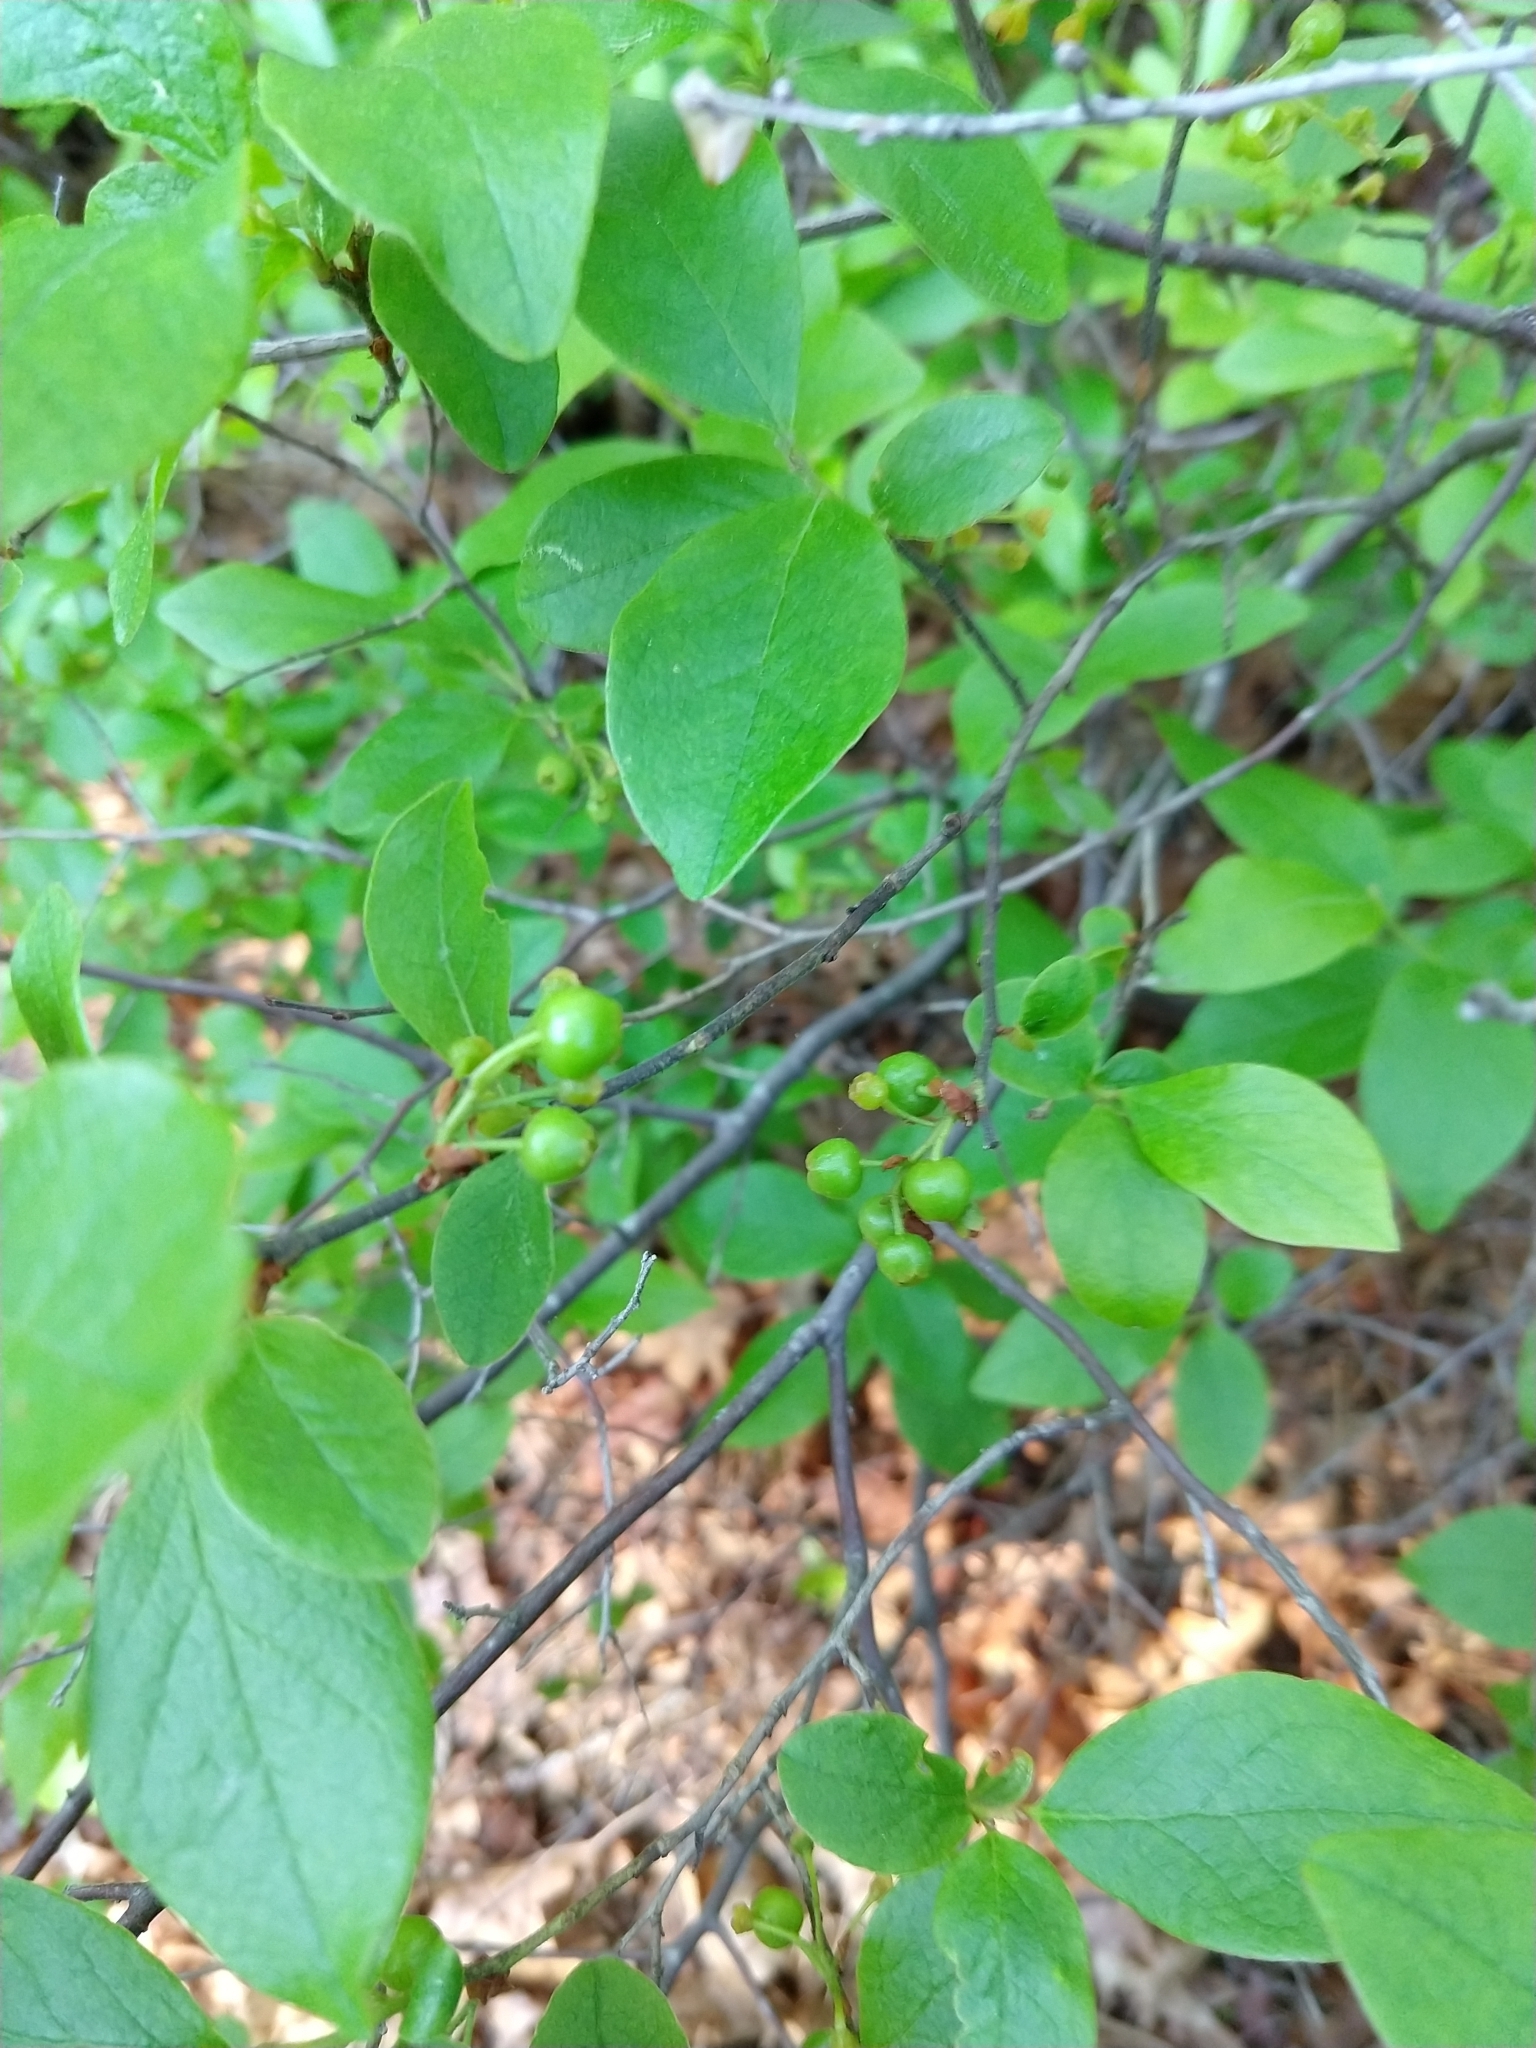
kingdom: Plantae
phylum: Tracheophyta
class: Magnoliopsida
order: Ericales
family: Ericaceae
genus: Gaylussacia
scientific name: Gaylussacia baccata
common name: Black huckleberry
